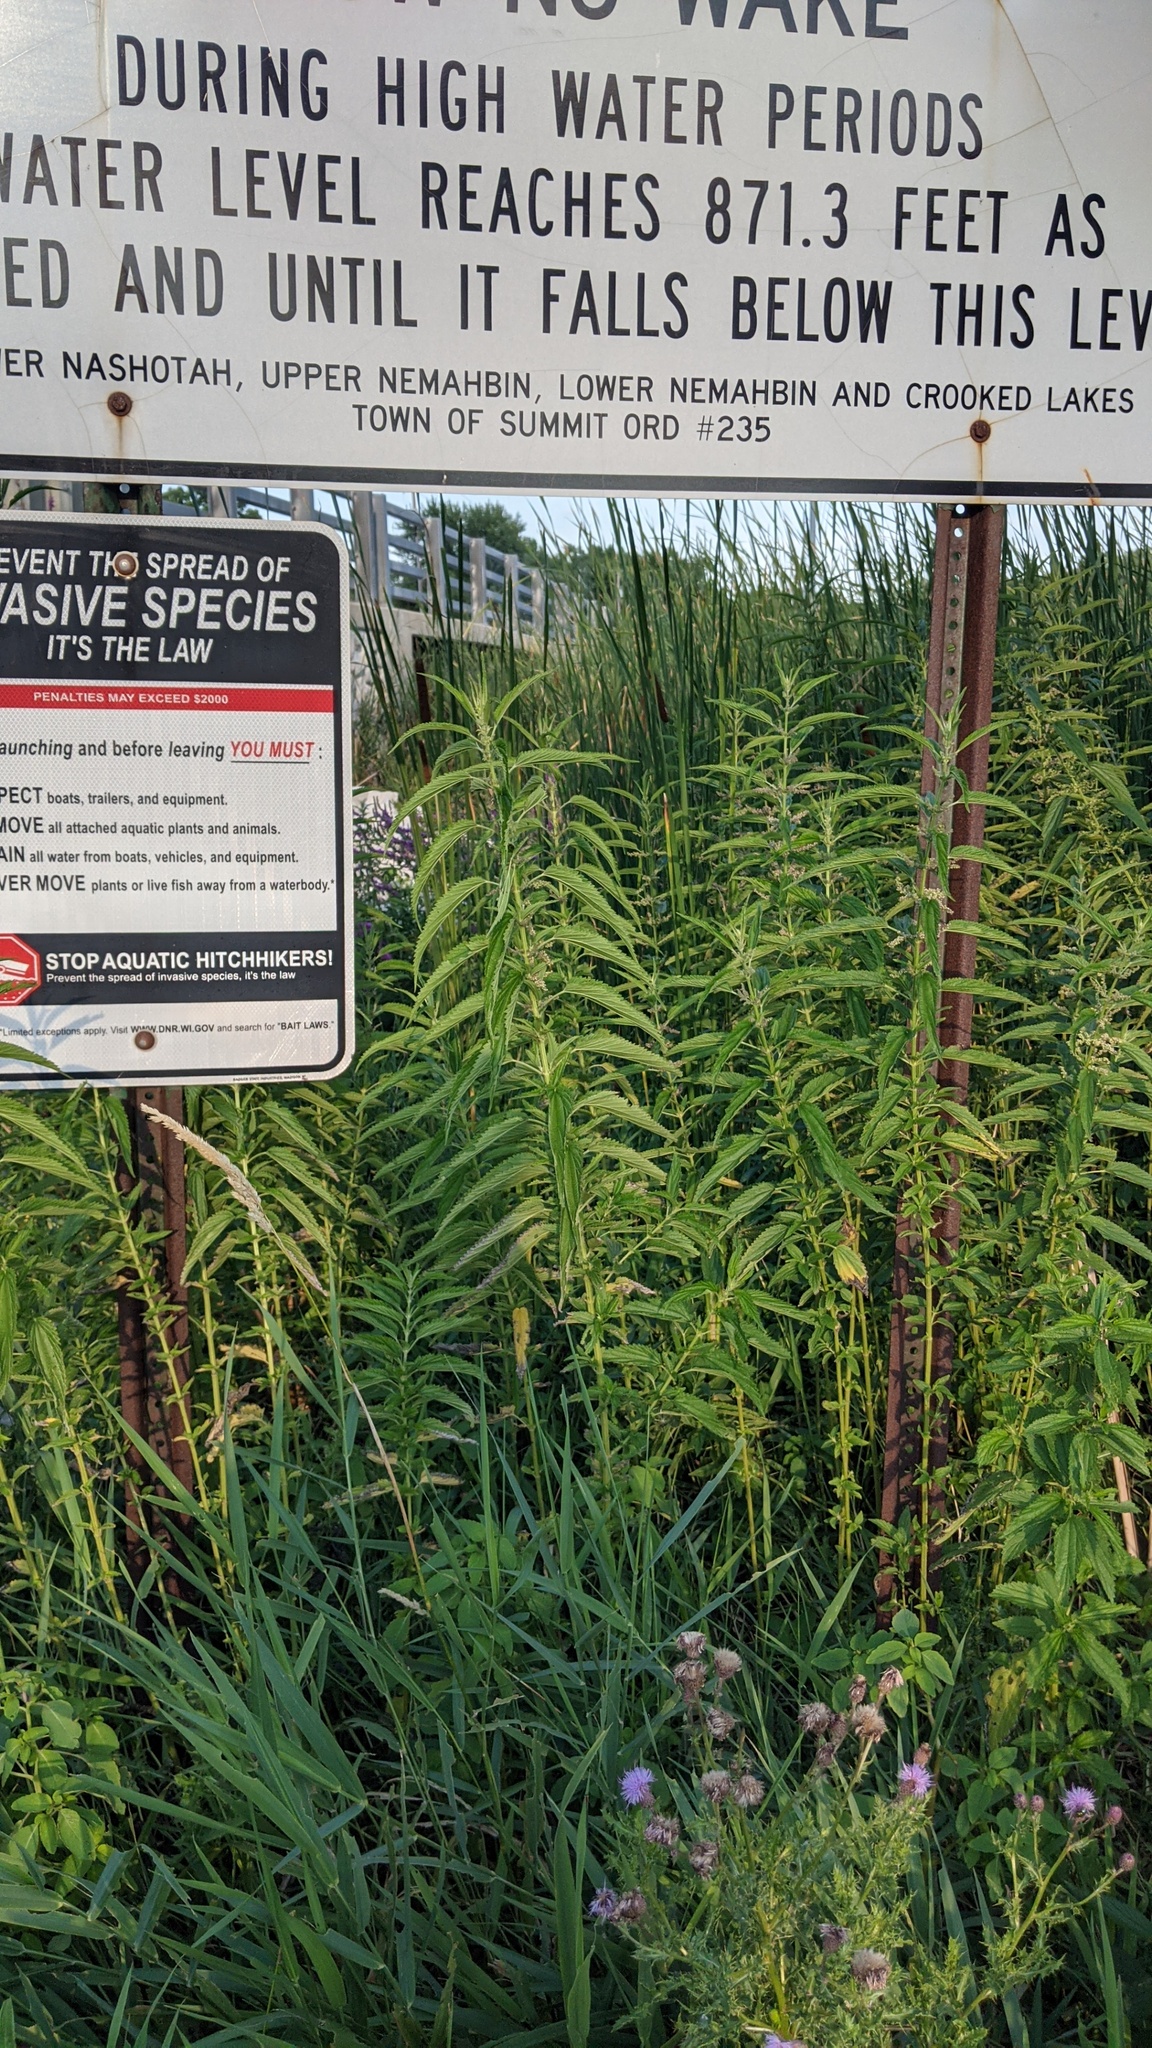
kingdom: Plantae
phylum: Tracheophyta
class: Magnoliopsida
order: Rosales
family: Urticaceae
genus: Urtica
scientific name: Urtica gracilis
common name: Slender stinging nettle
